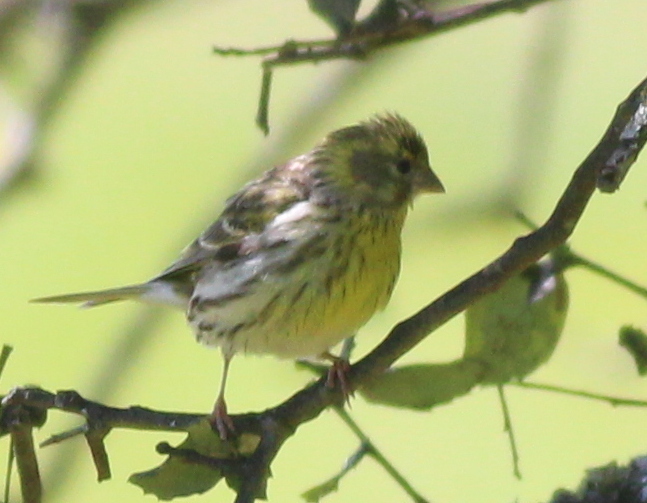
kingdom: Animalia
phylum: Chordata
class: Aves
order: Passeriformes
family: Fringillidae
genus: Serinus
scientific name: Serinus serinus
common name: European serin
